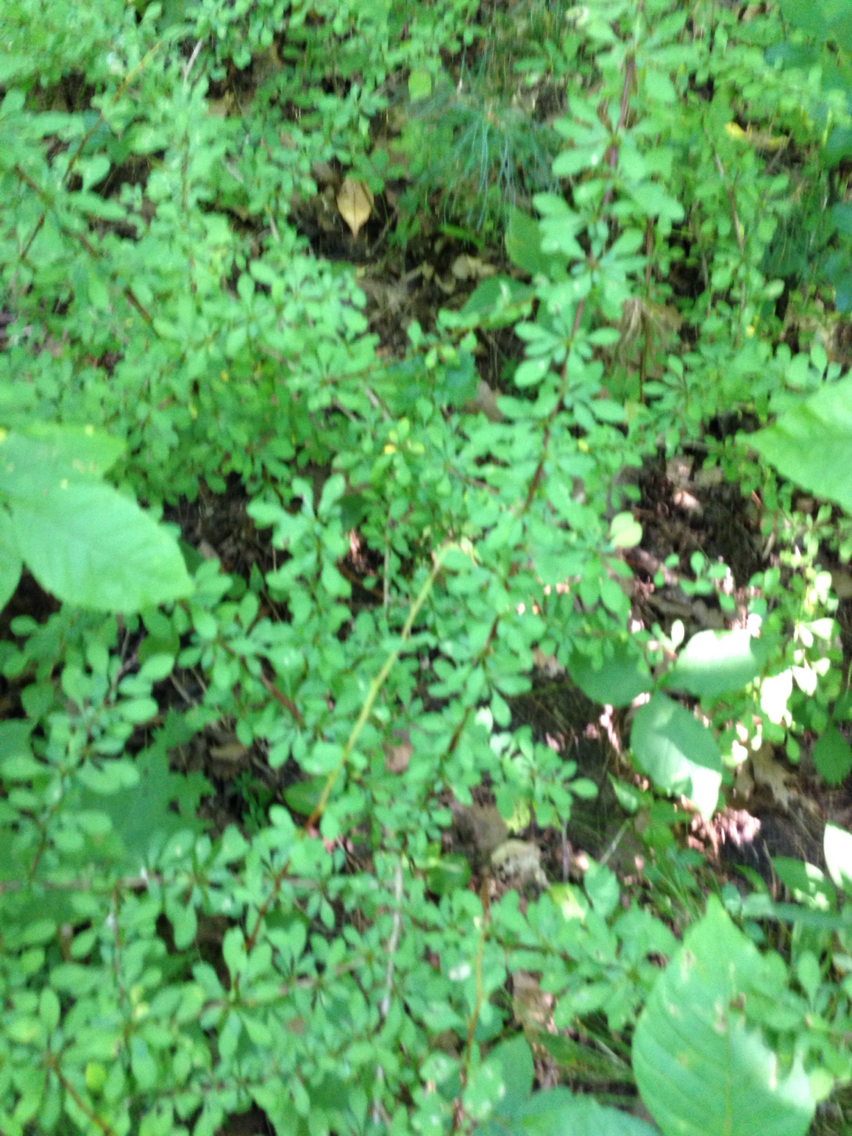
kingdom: Plantae
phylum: Tracheophyta
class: Magnoliopsida
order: Ranunculales
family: Berberidaceae
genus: Berberis
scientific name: Berberis thunbergii
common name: Japanese barberry
